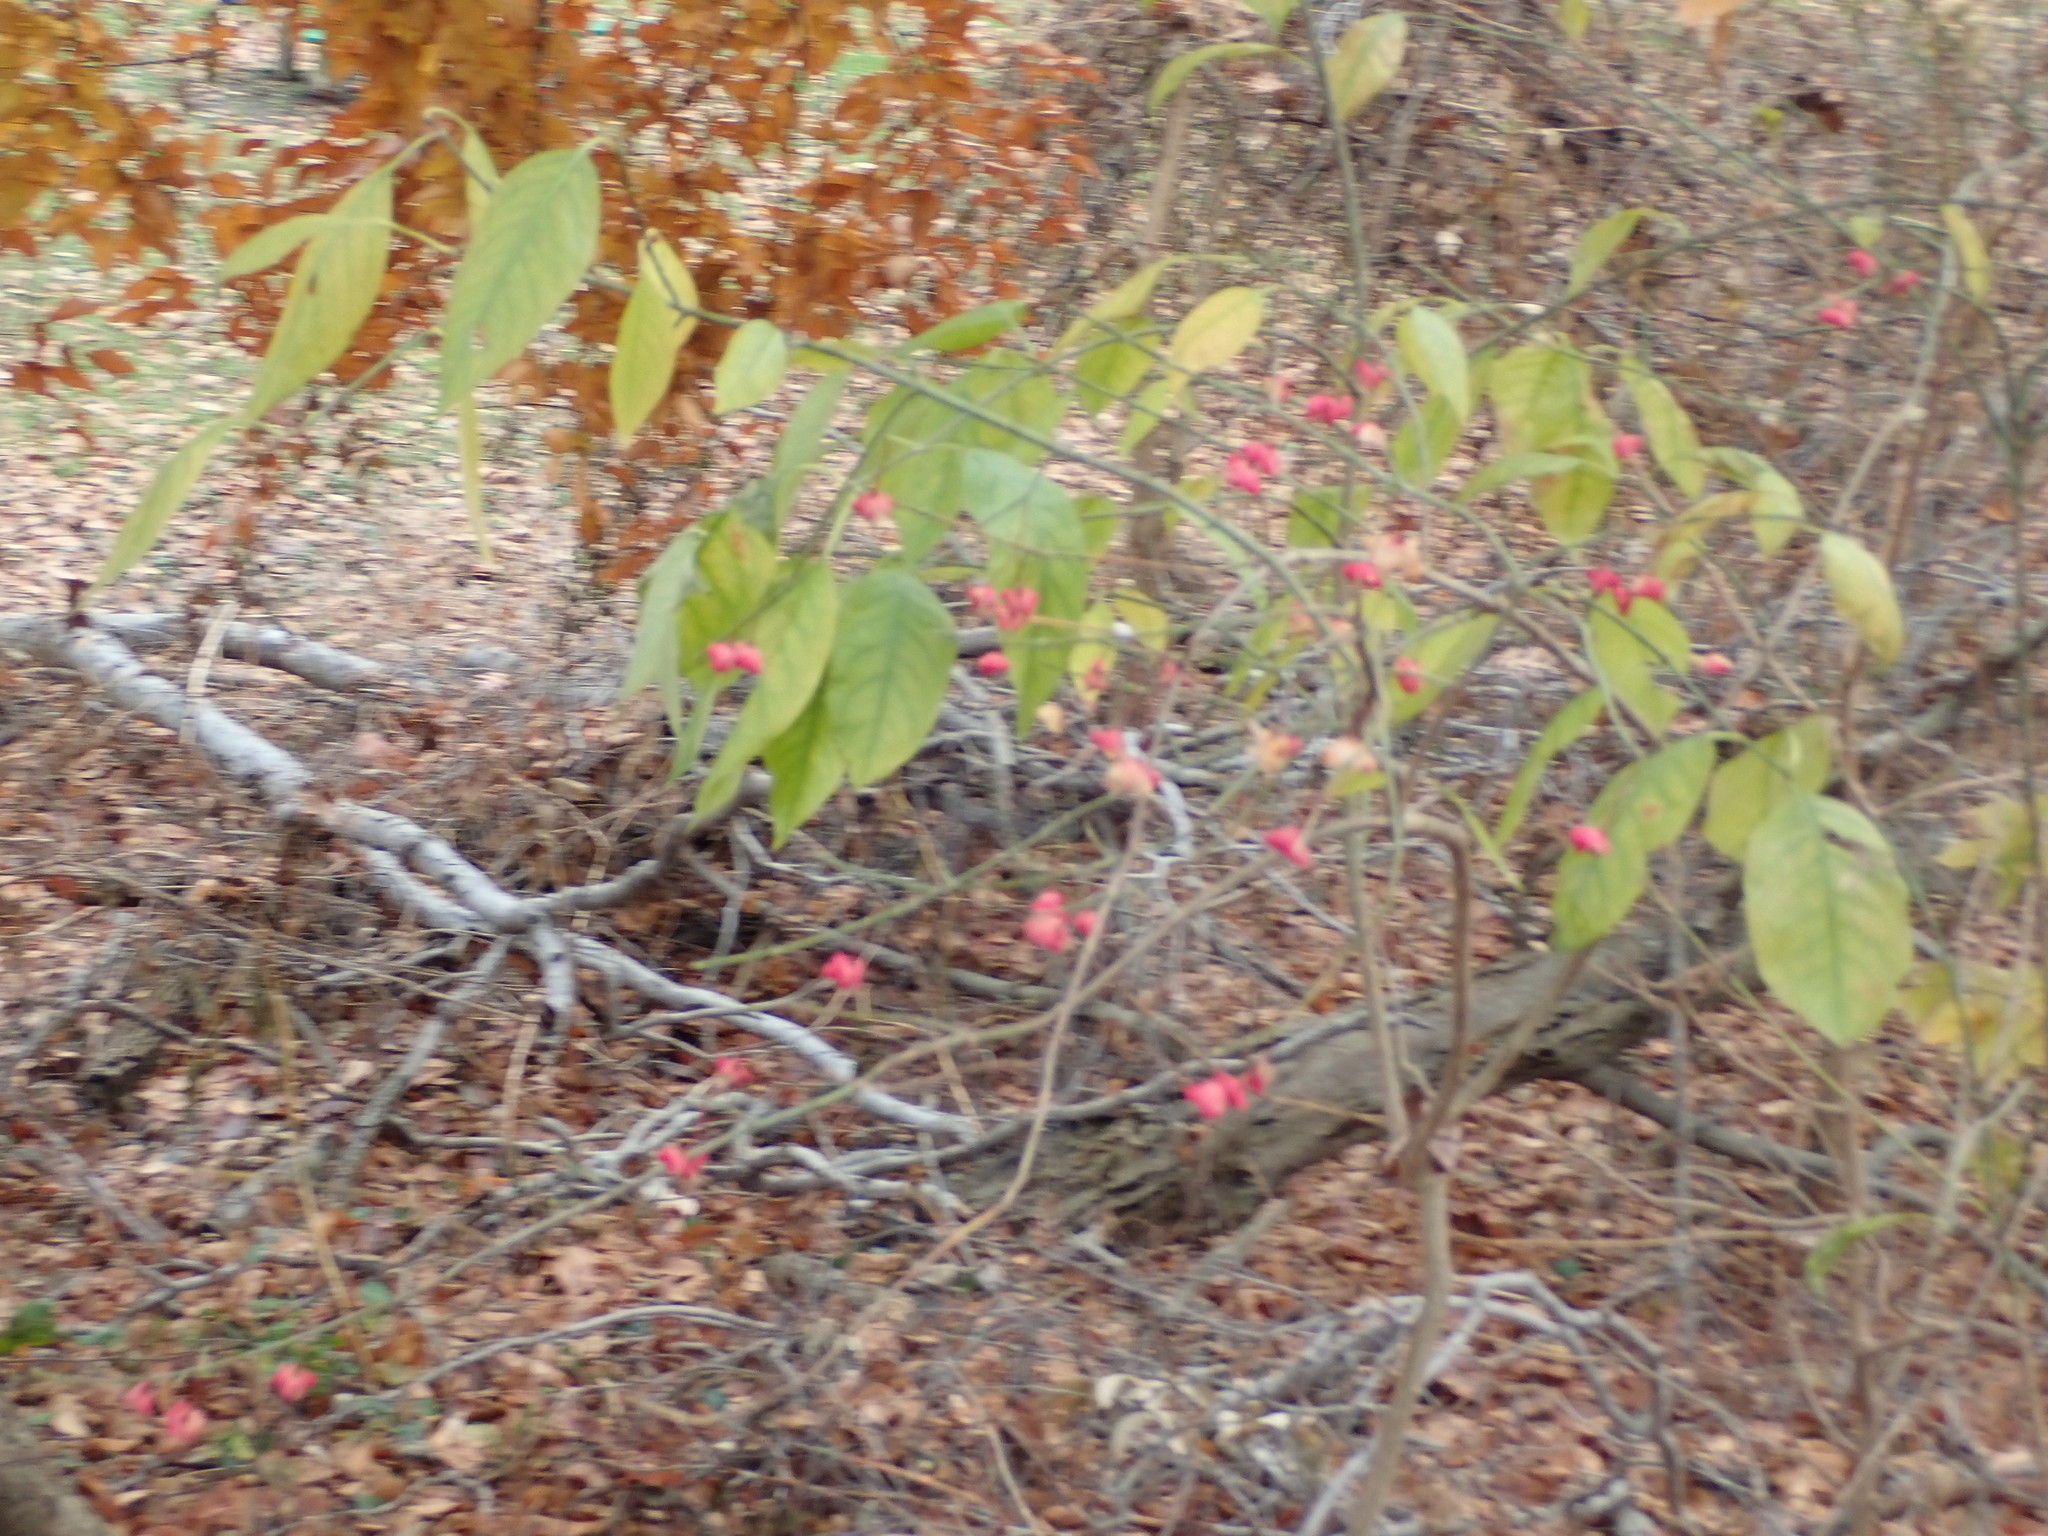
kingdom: Plantae
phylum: Tracheophyta
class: Magnoliopsida
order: Celastrales
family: Celastraceae
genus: Euonymus
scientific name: Euonymus atropurpureus
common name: Eastern wahoo
